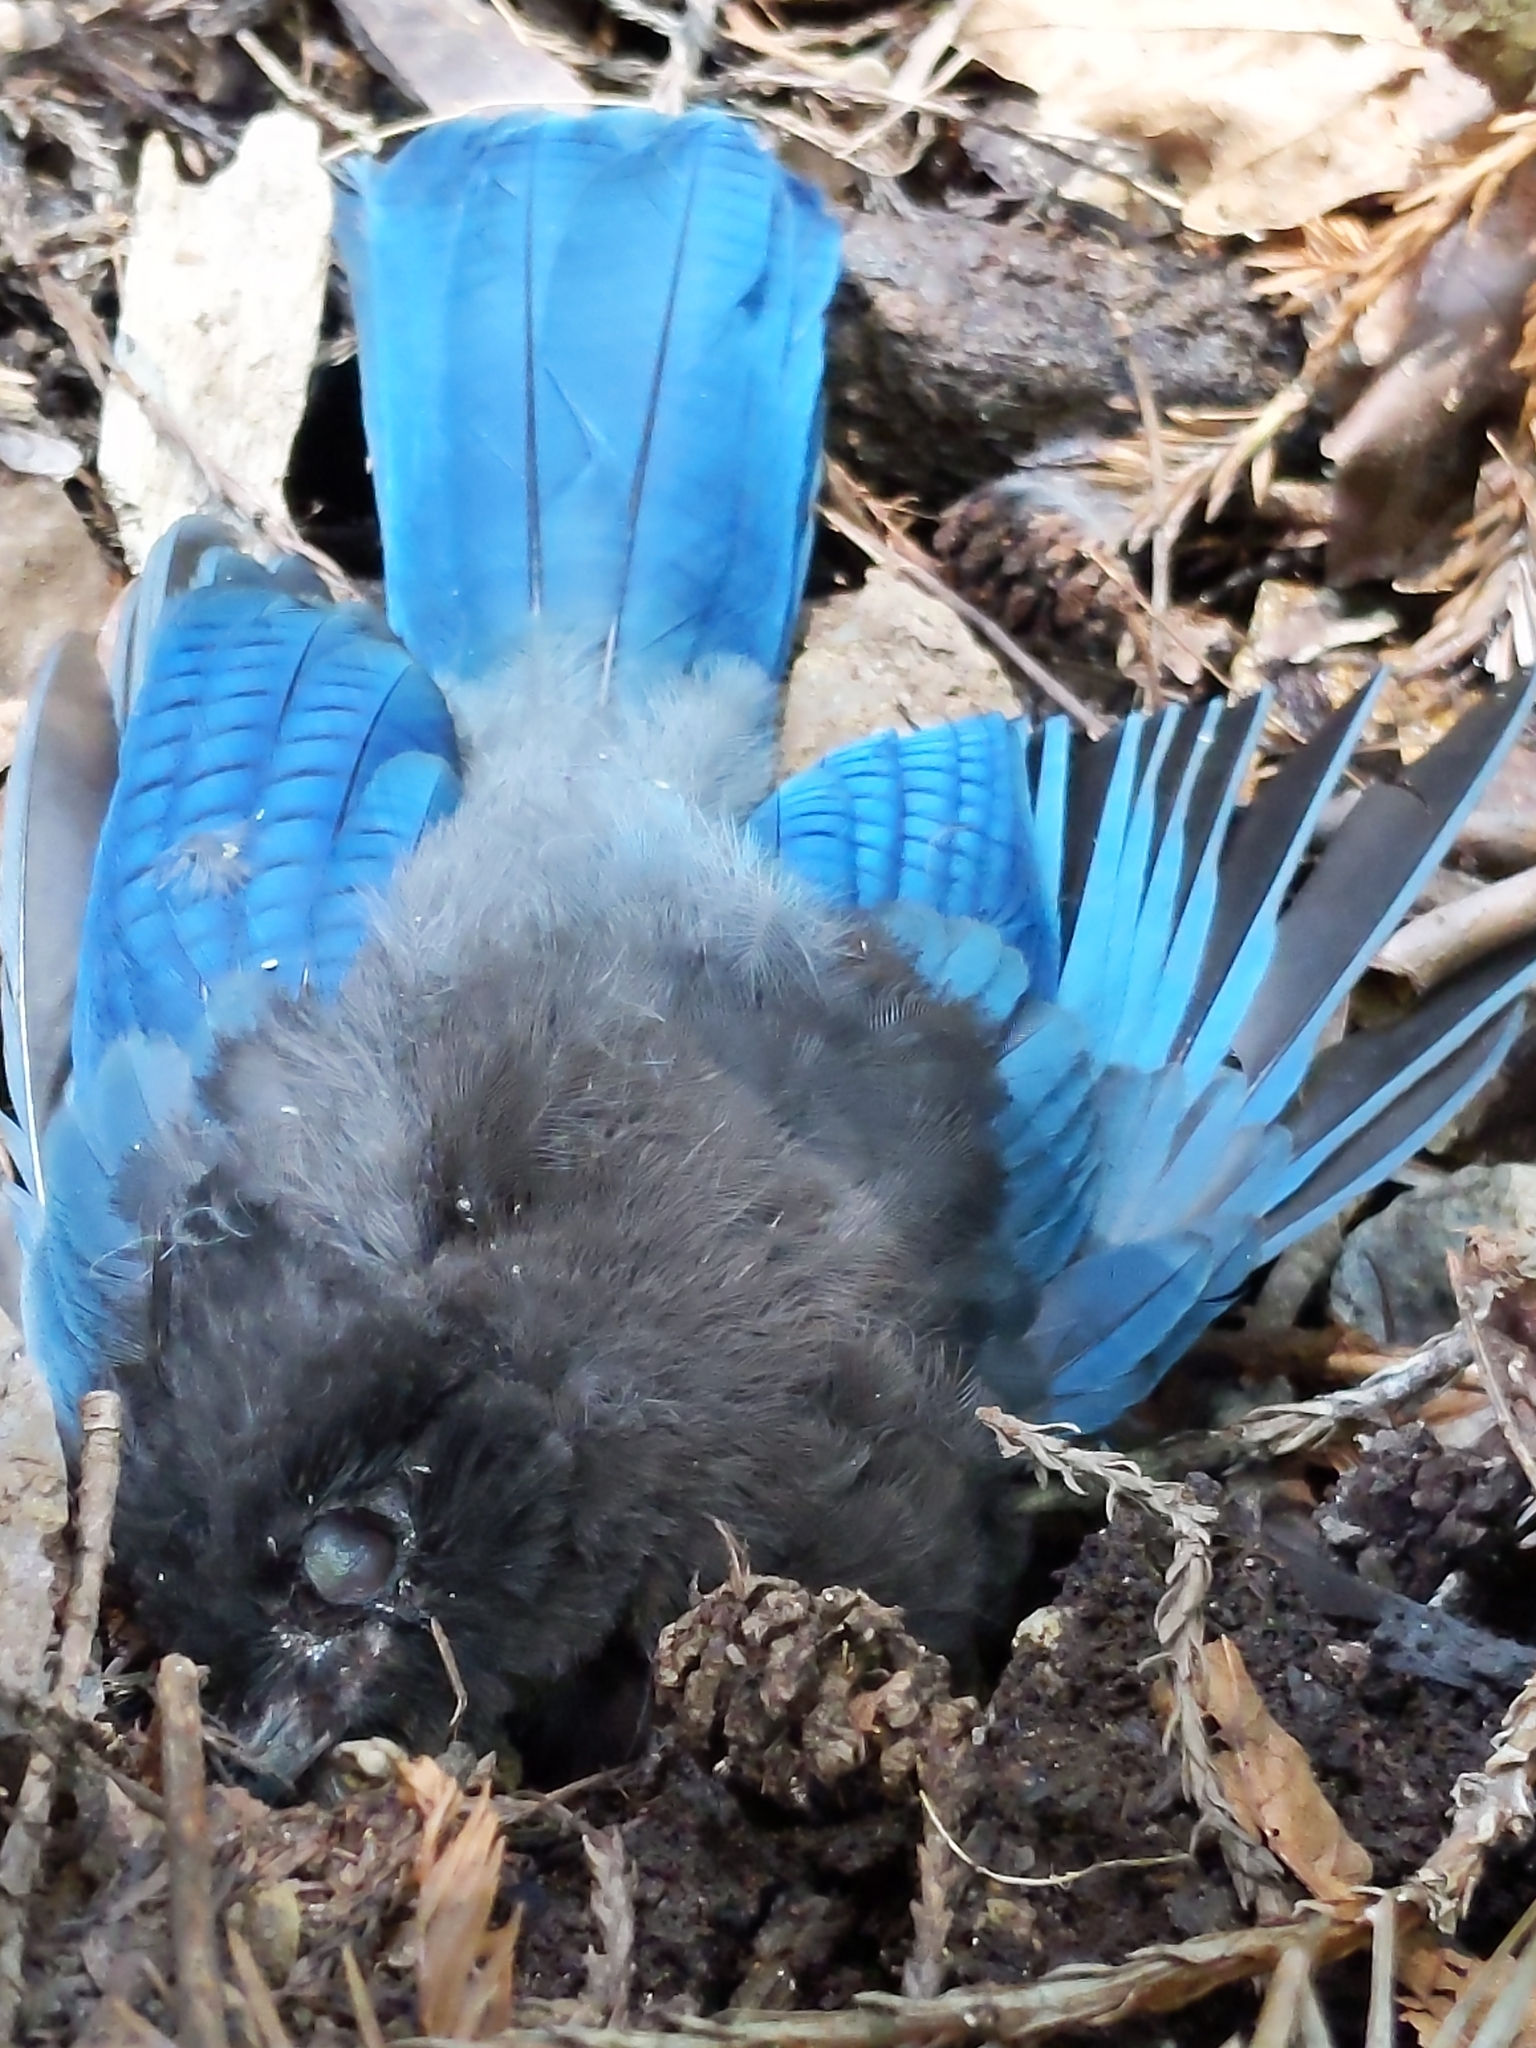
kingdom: Animalia
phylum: Chordata
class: Aves
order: Passeriformes
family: Corvidae
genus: Cyanocitta
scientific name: Cyanocitta stelleri
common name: Steller's jay
